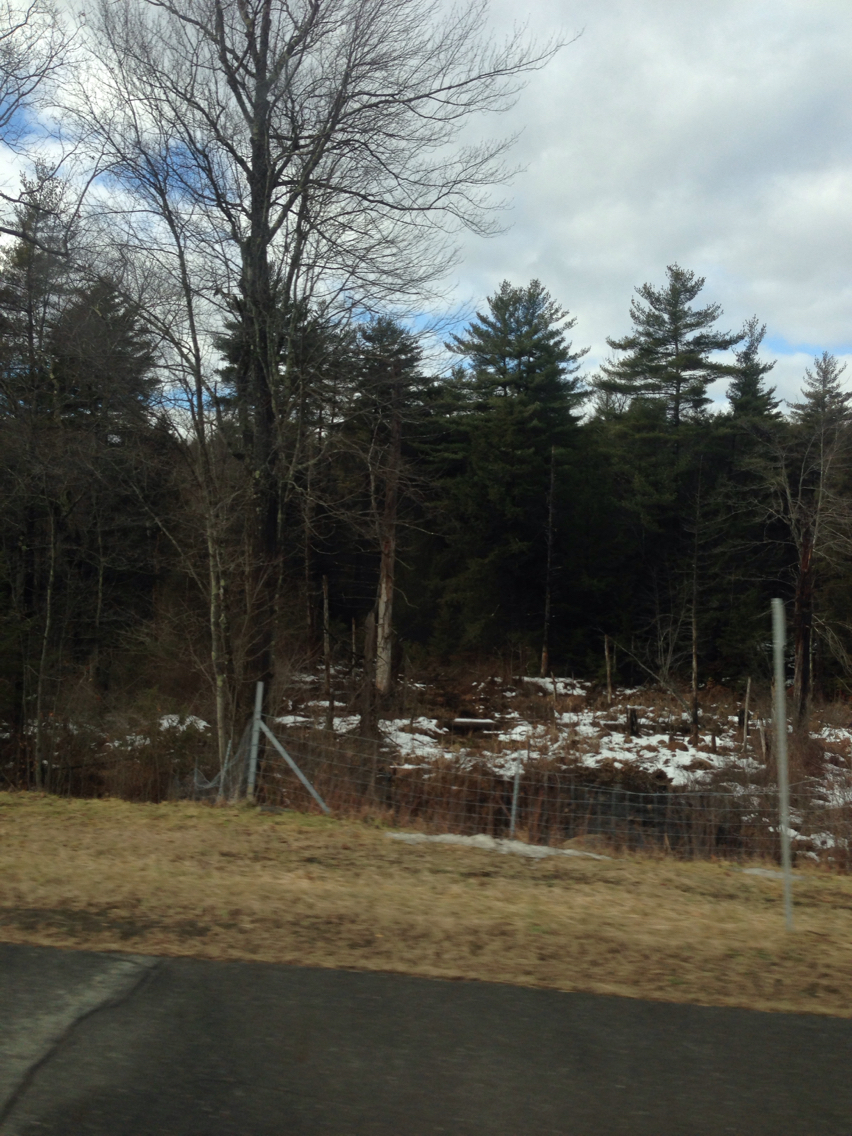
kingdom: Plantae
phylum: Tracheophyta
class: Pinopsida
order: Pinales
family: Pinaceae
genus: Pinus
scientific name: Pinus strobus
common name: Weymouth pine
